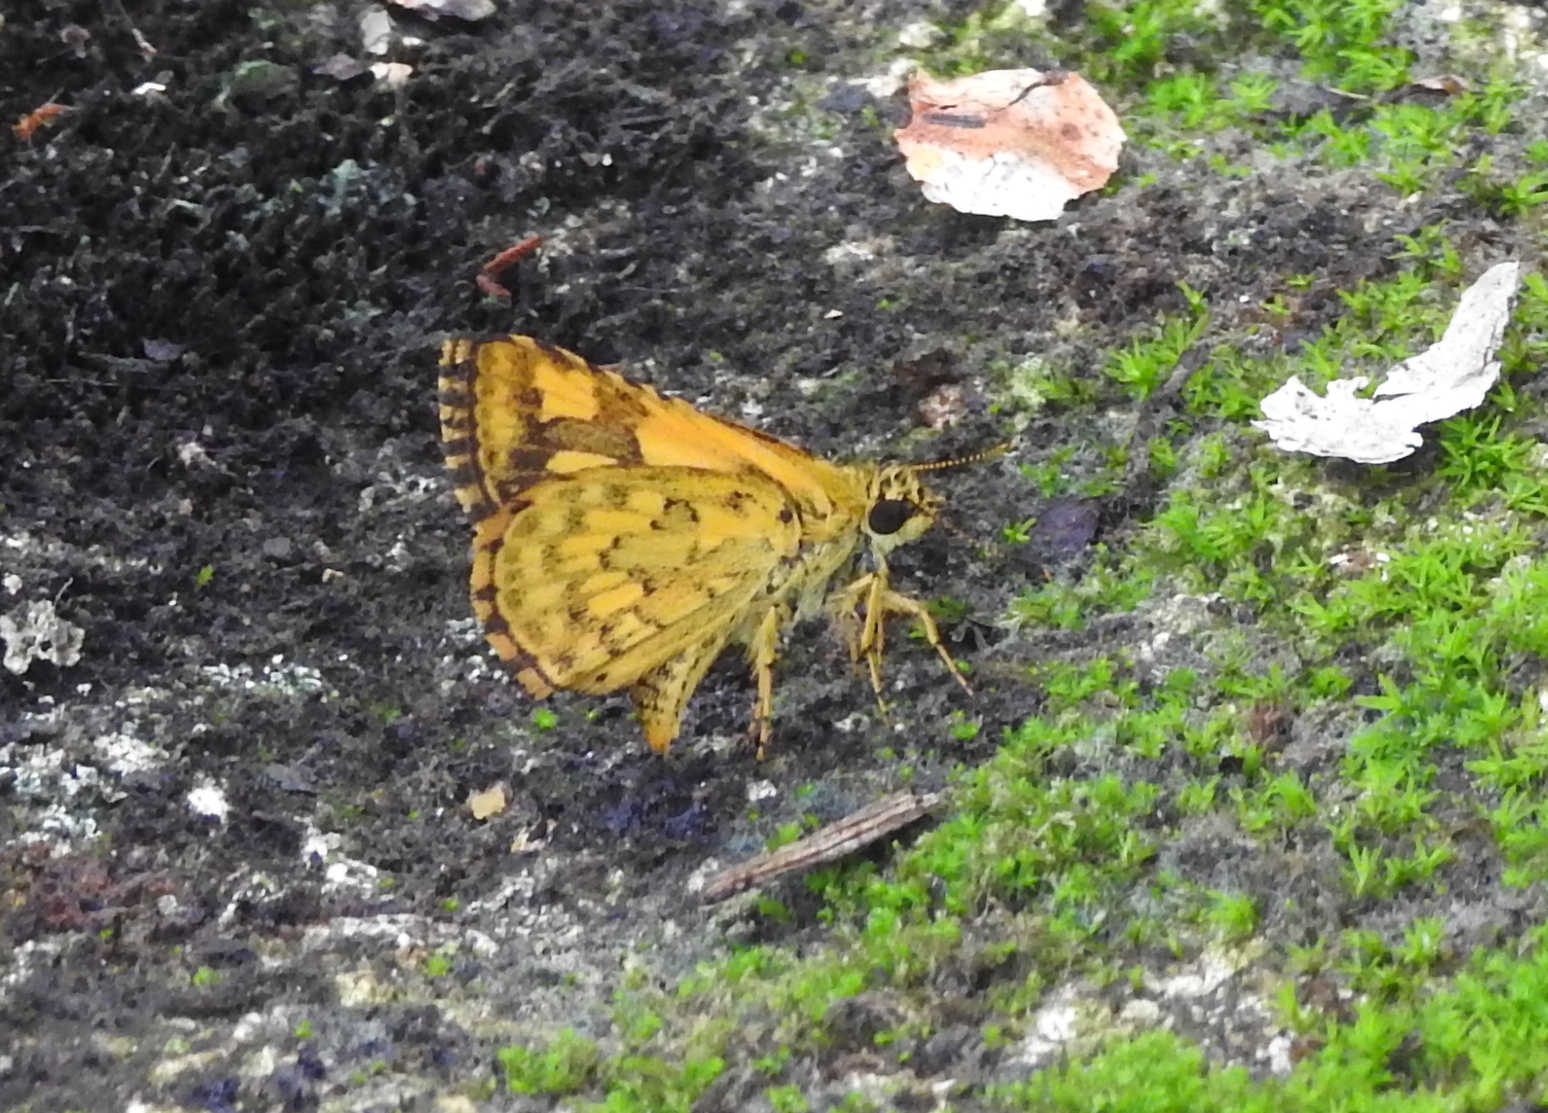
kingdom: Animalia
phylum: Arthropoda
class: Insecta
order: Lepidoptera
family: Hesperiidae
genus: Ampittia
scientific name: Ampittia dioscorides
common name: Common bush hopper
